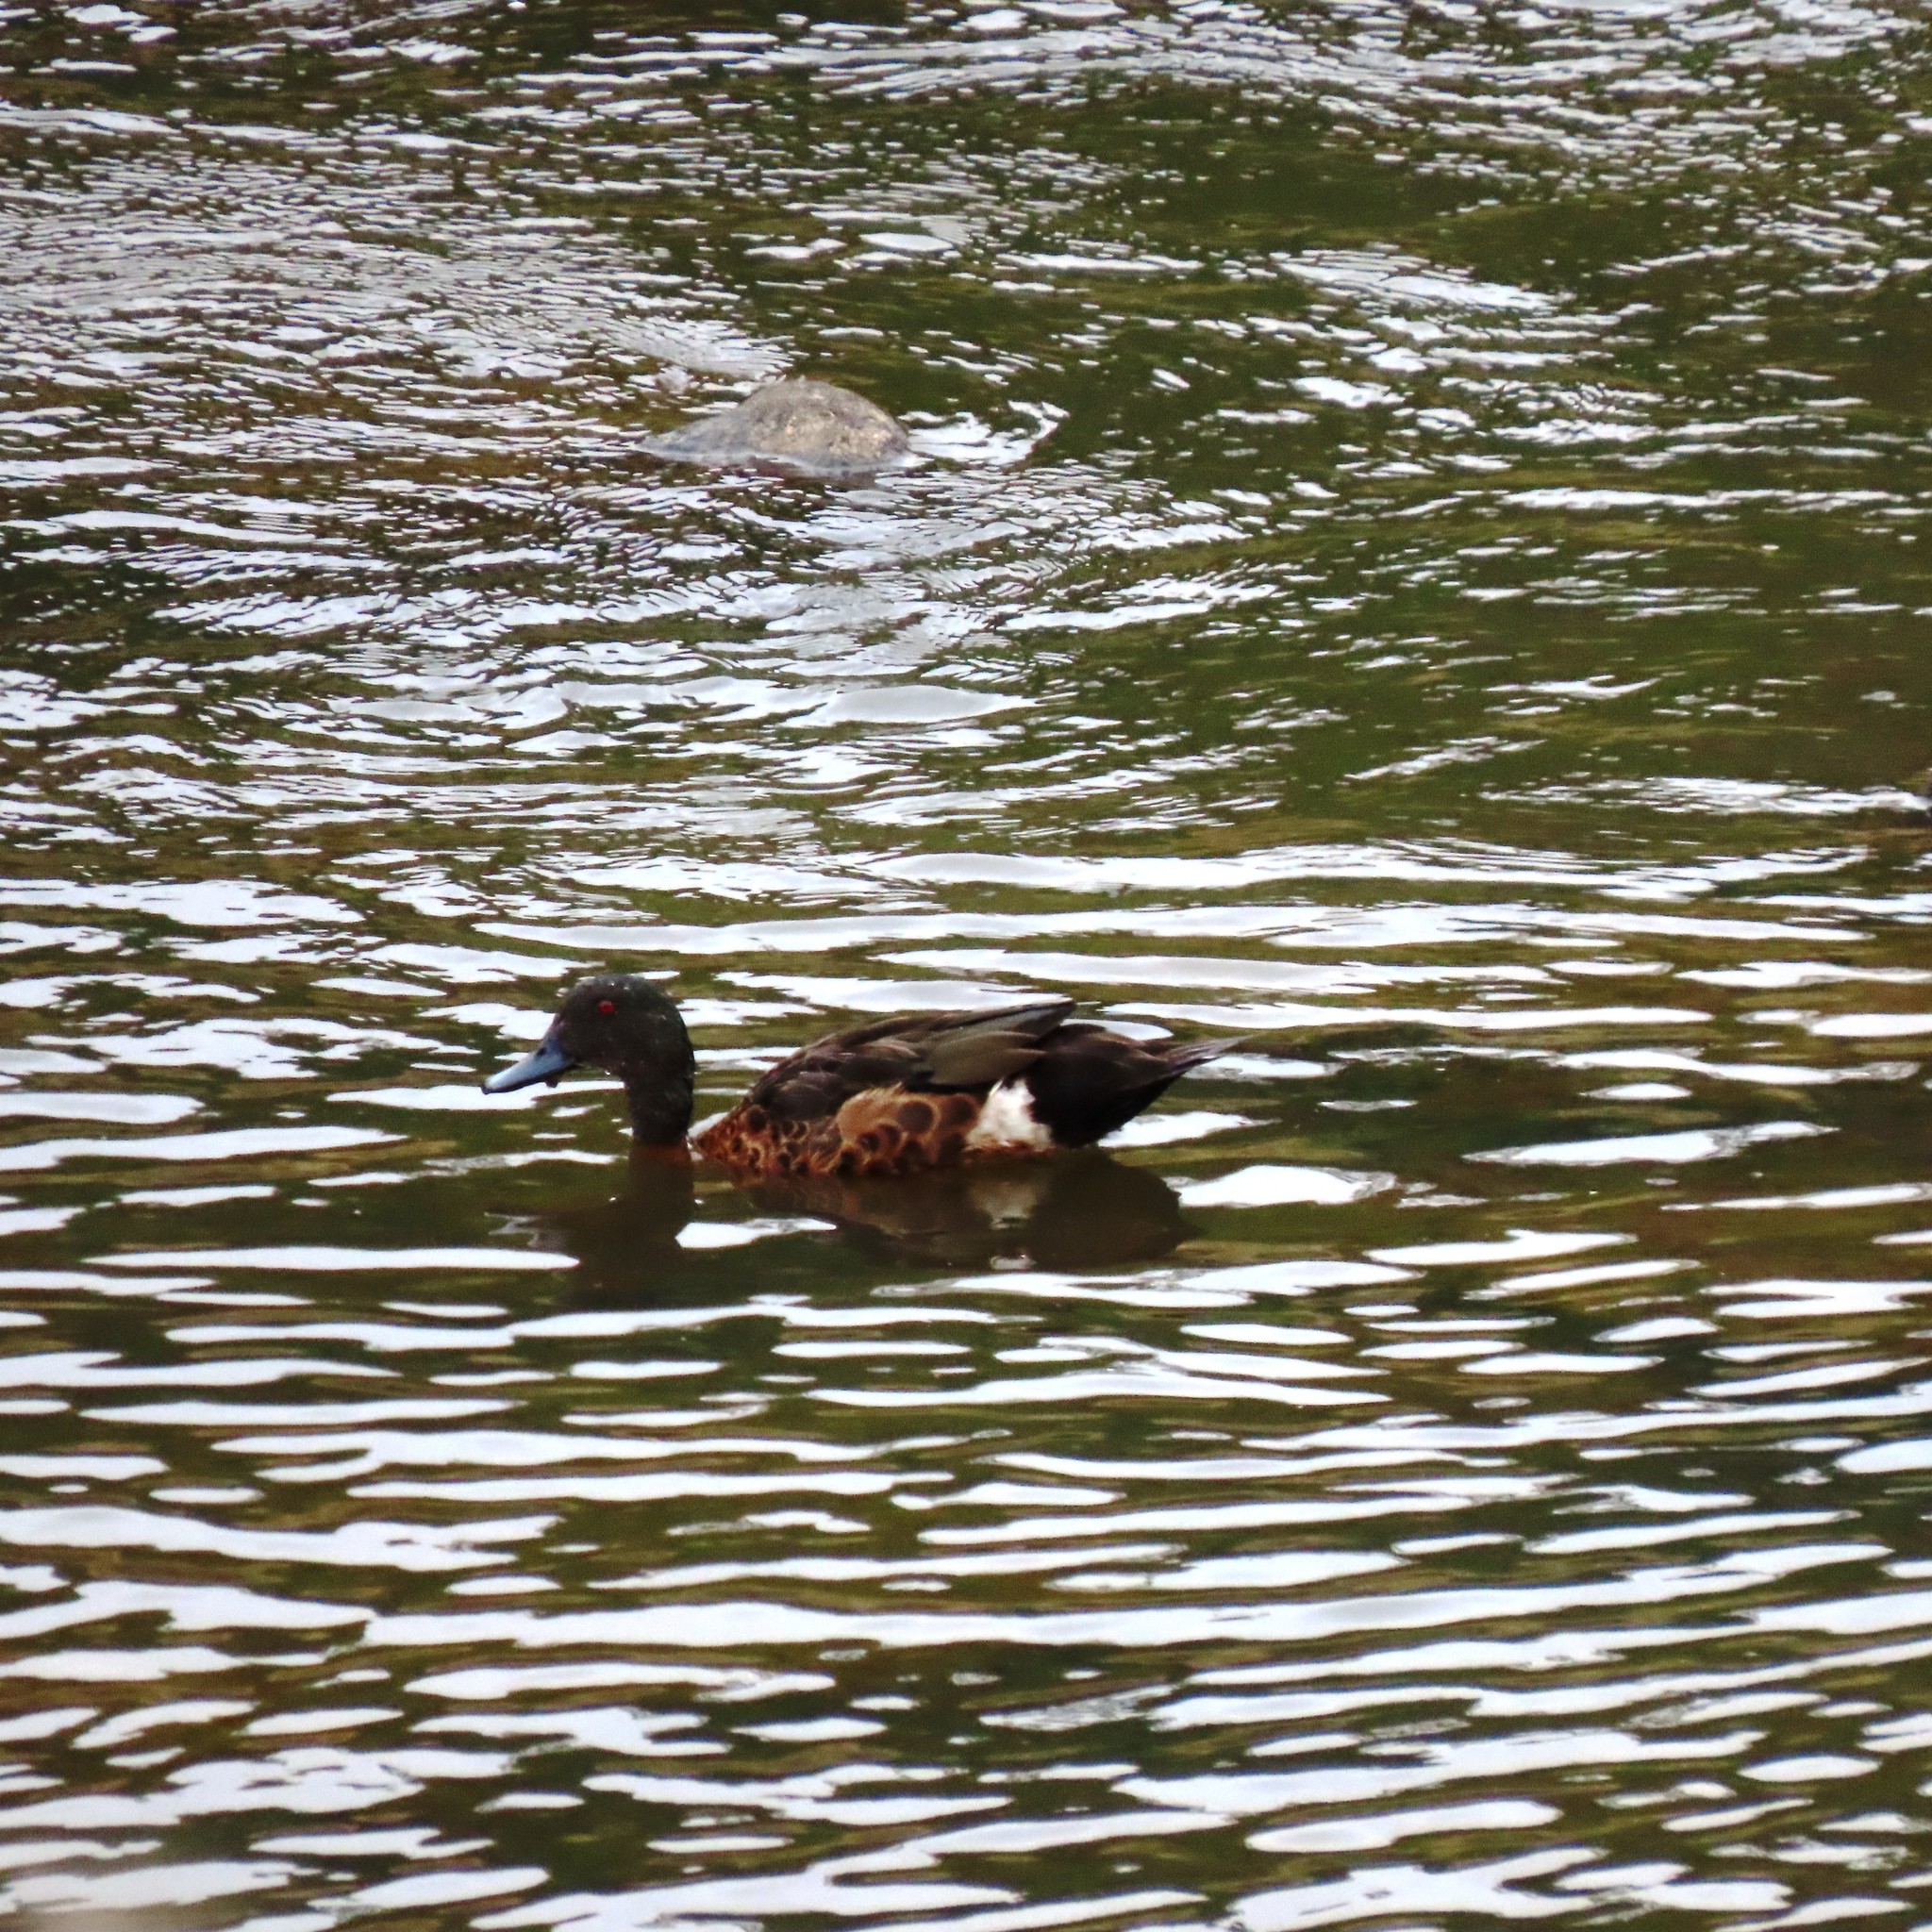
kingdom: Animalia
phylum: Chordata
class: Aves
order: Anseriformes
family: Anatidae
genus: Anas
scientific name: Anas castanea
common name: Chestnut teal
